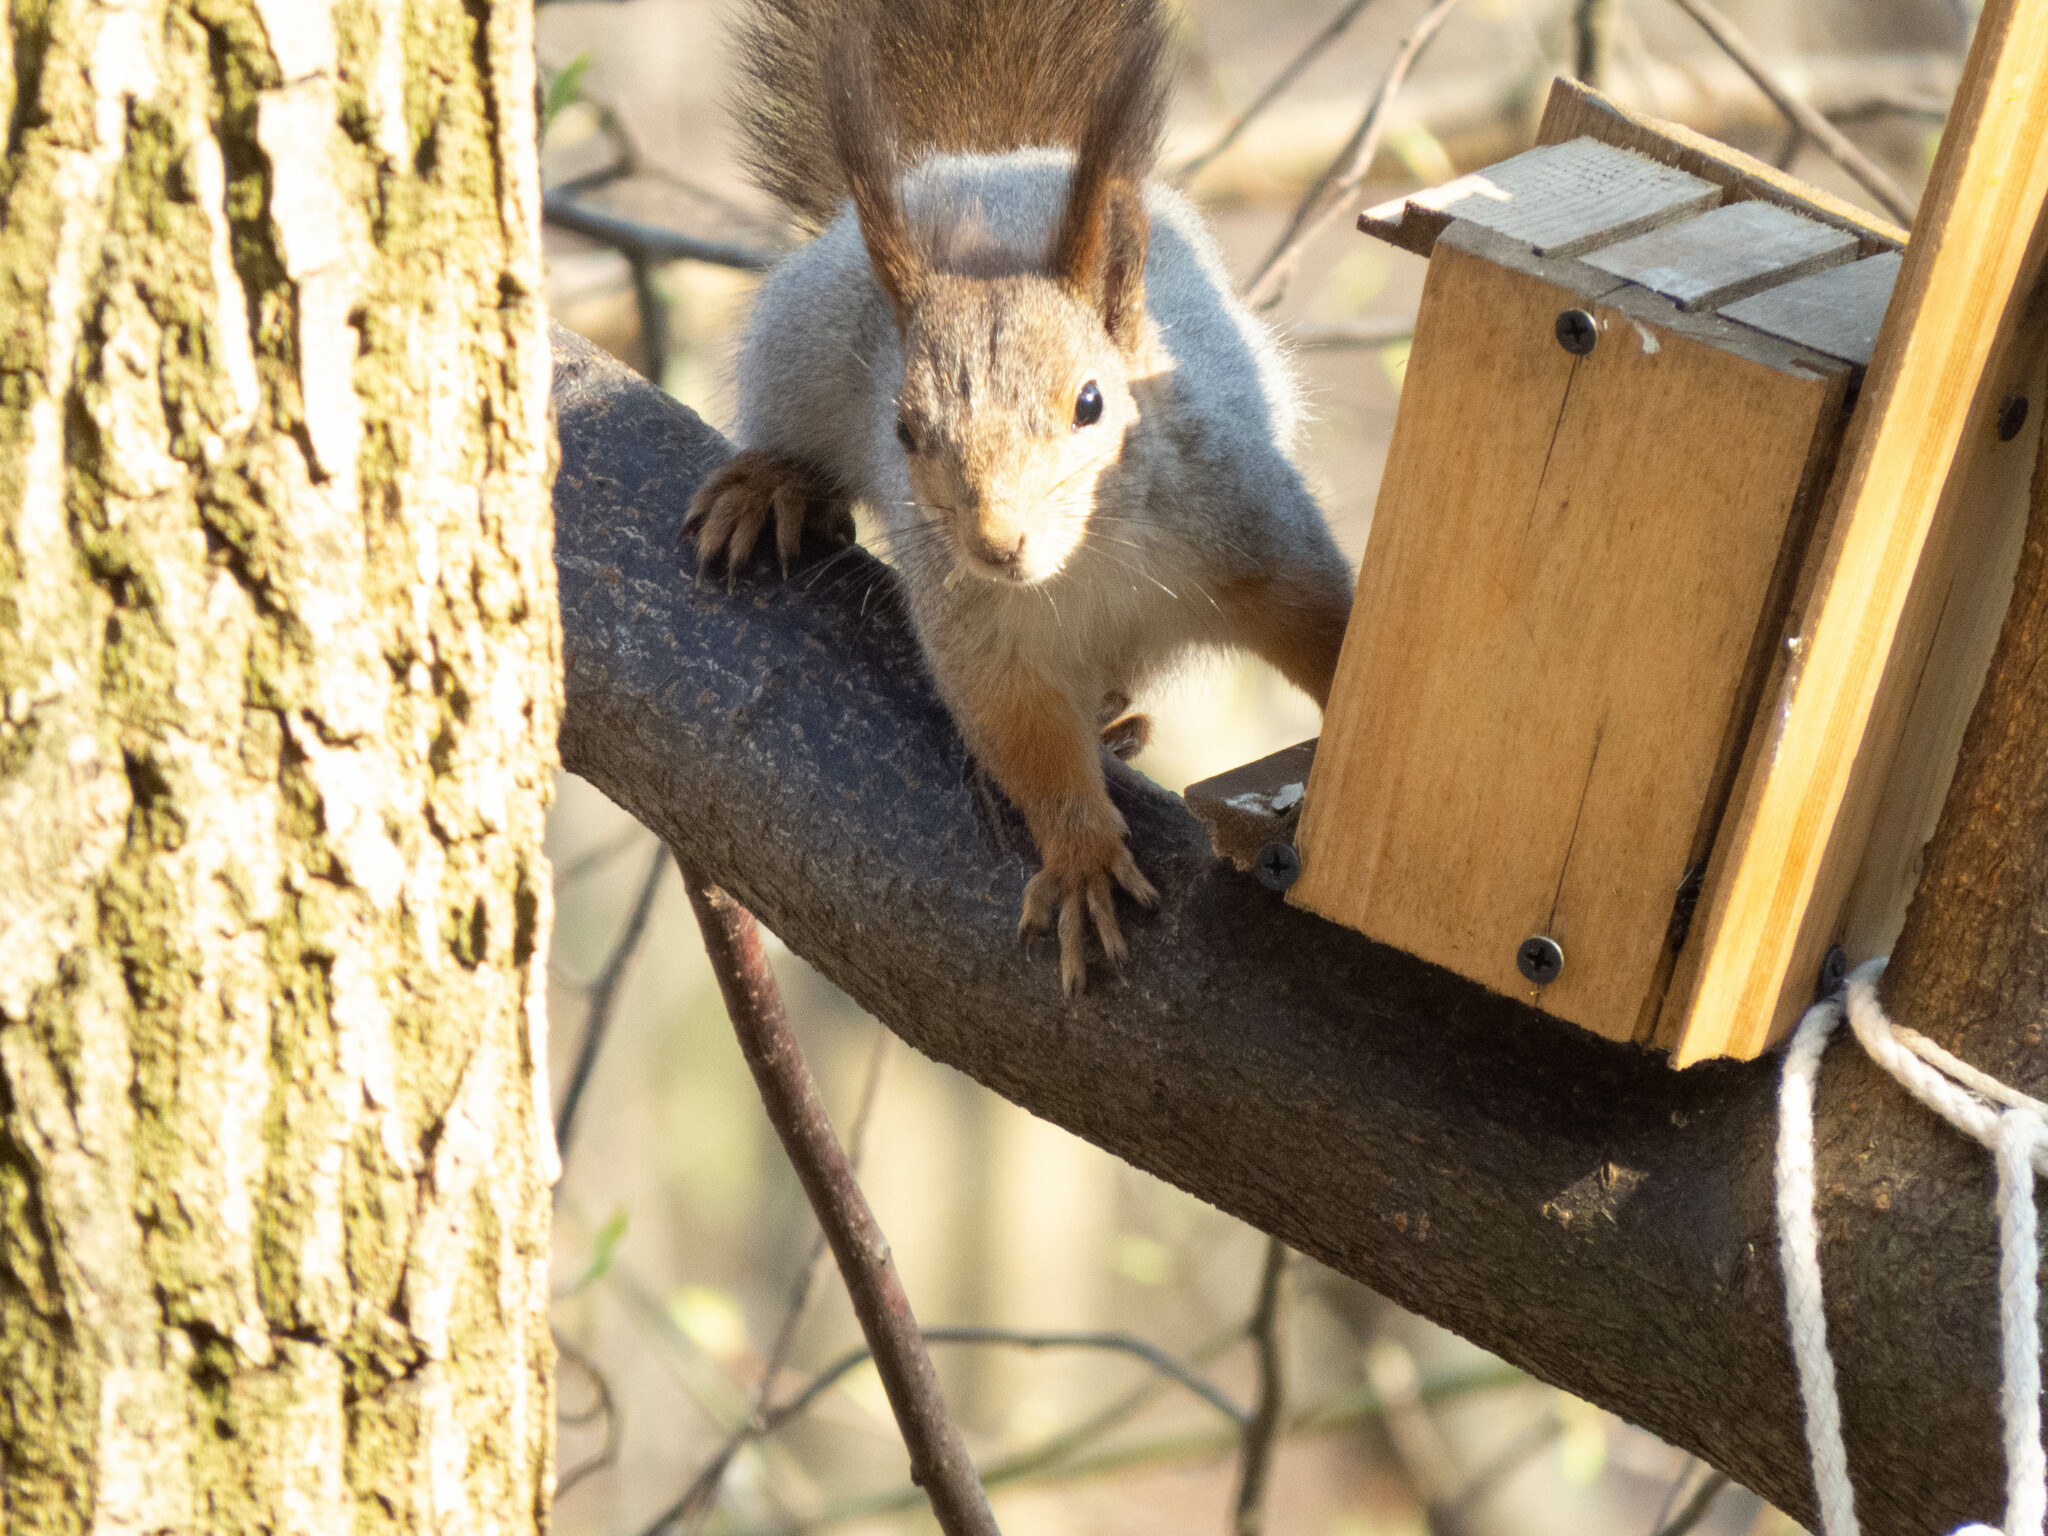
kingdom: Animalia
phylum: Chordata
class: Mammalia
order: Rodentia
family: Sciuridae
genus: Sciurus
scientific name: Sciurus vulgaris
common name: Eurasian red squirrel
